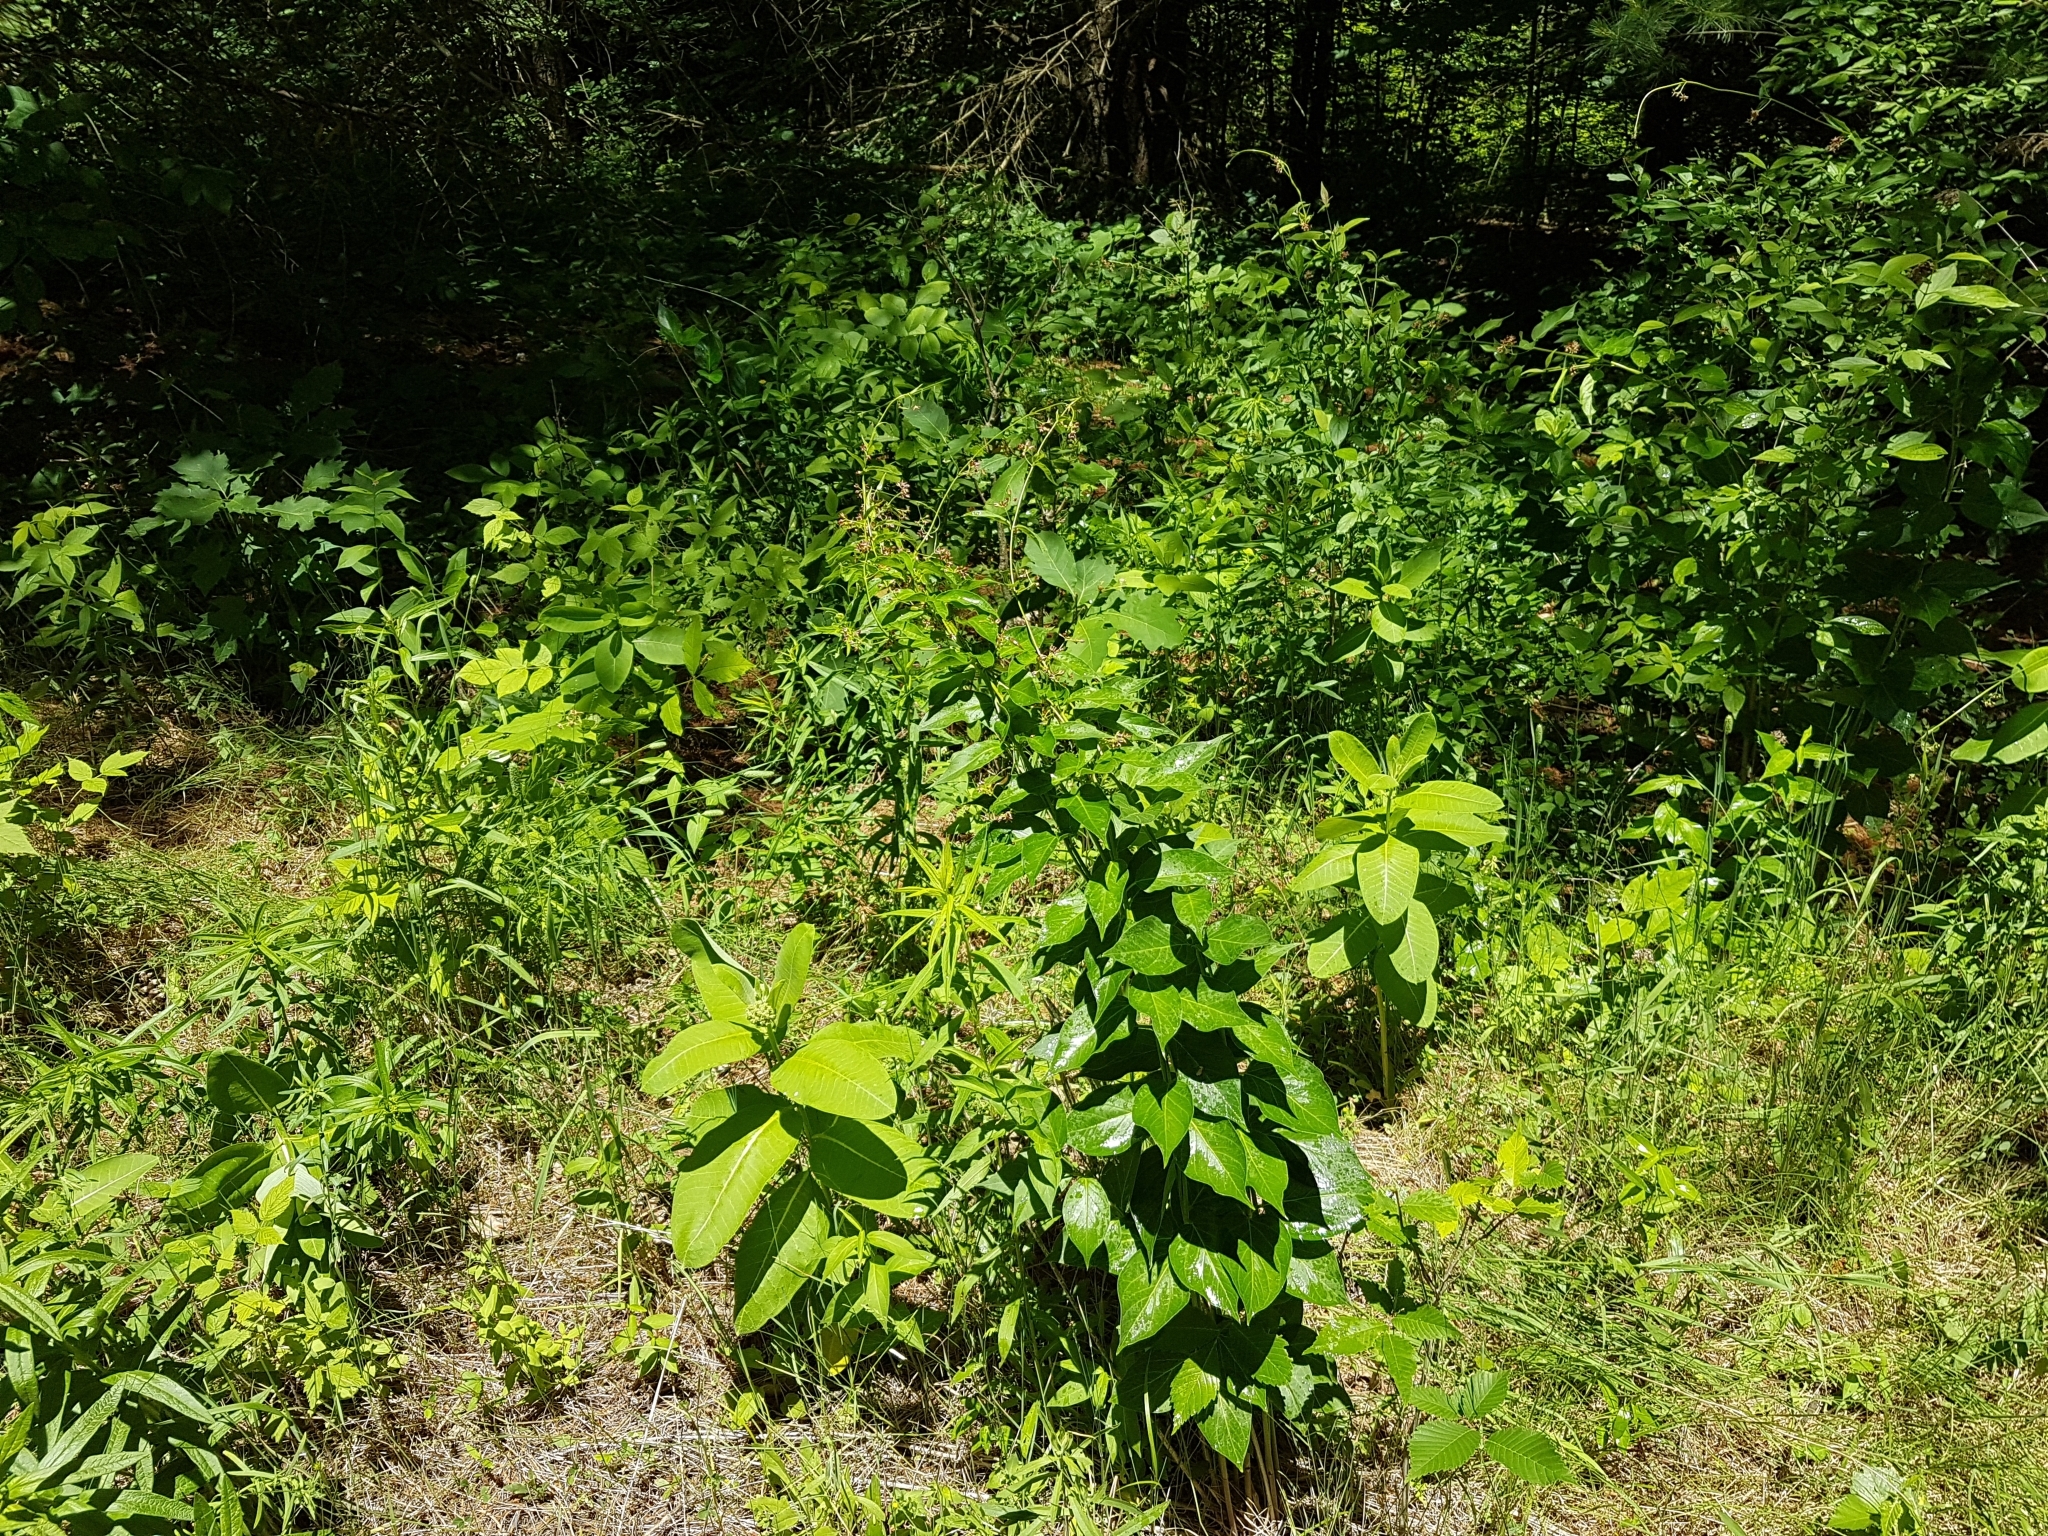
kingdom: Plantae
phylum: Tracheophyta
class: Magnoliopsida
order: Gentianales
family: Apocynaceae
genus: Vincetoxicum
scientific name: Vincetoxicum rossicum
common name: Dog-strangling vine
